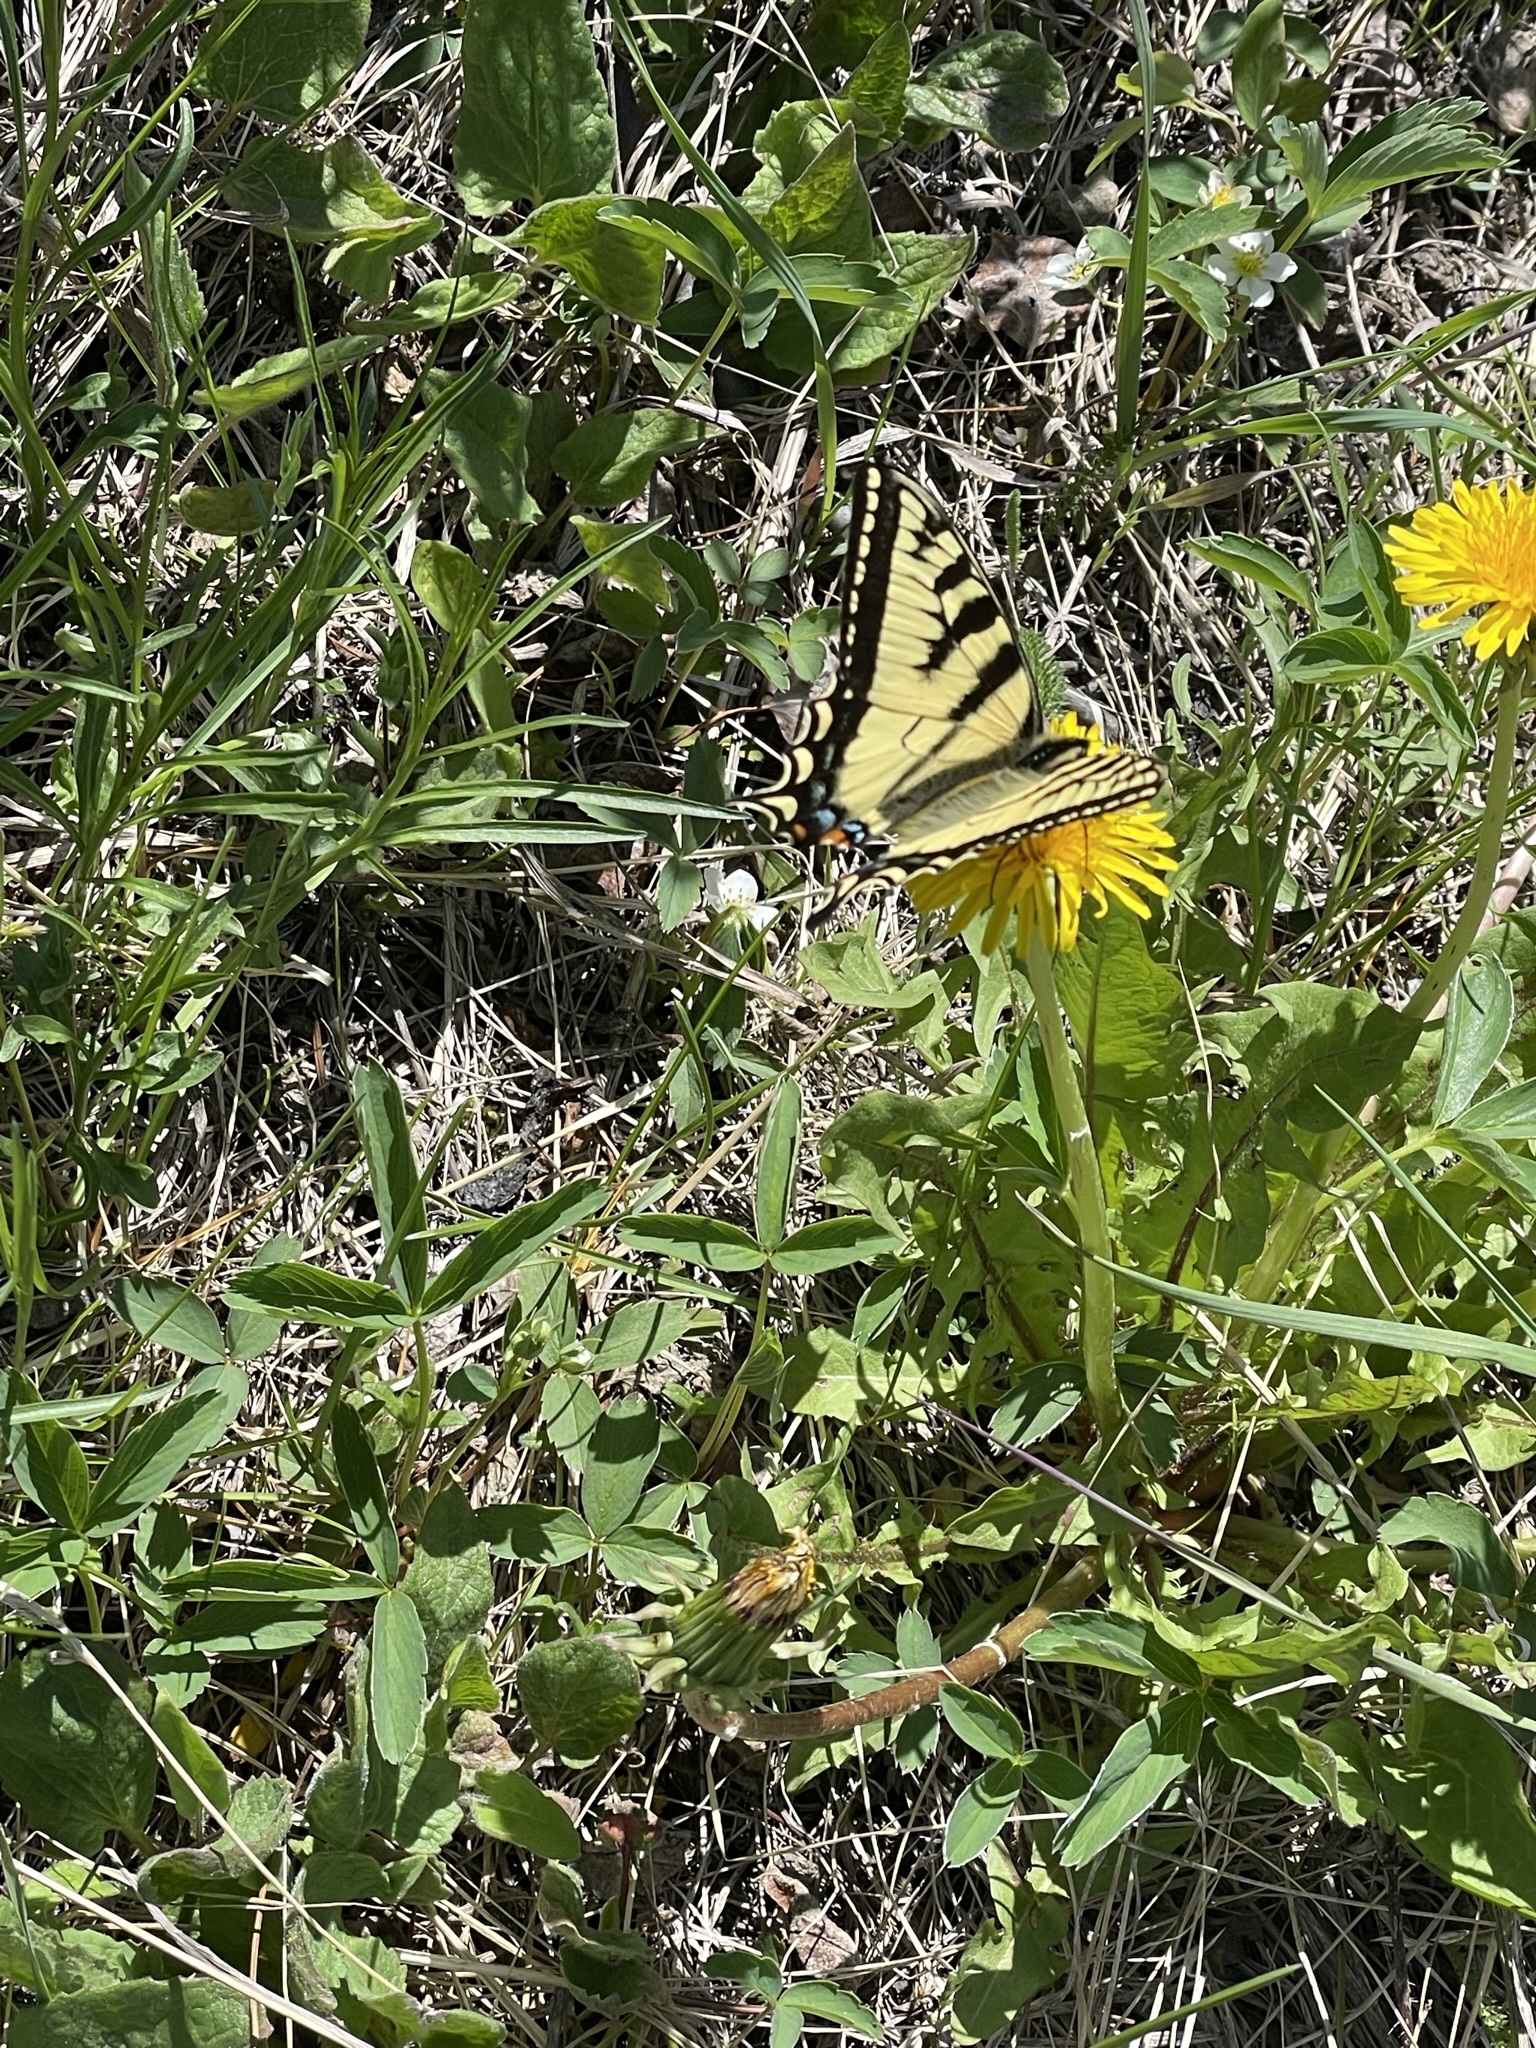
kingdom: Animalia
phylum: Arthropoda
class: Insecta
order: Lepidoptera
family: Papilionidae
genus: Papilio
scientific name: Papilio canadensis
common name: Canadian tiger swallowtail
